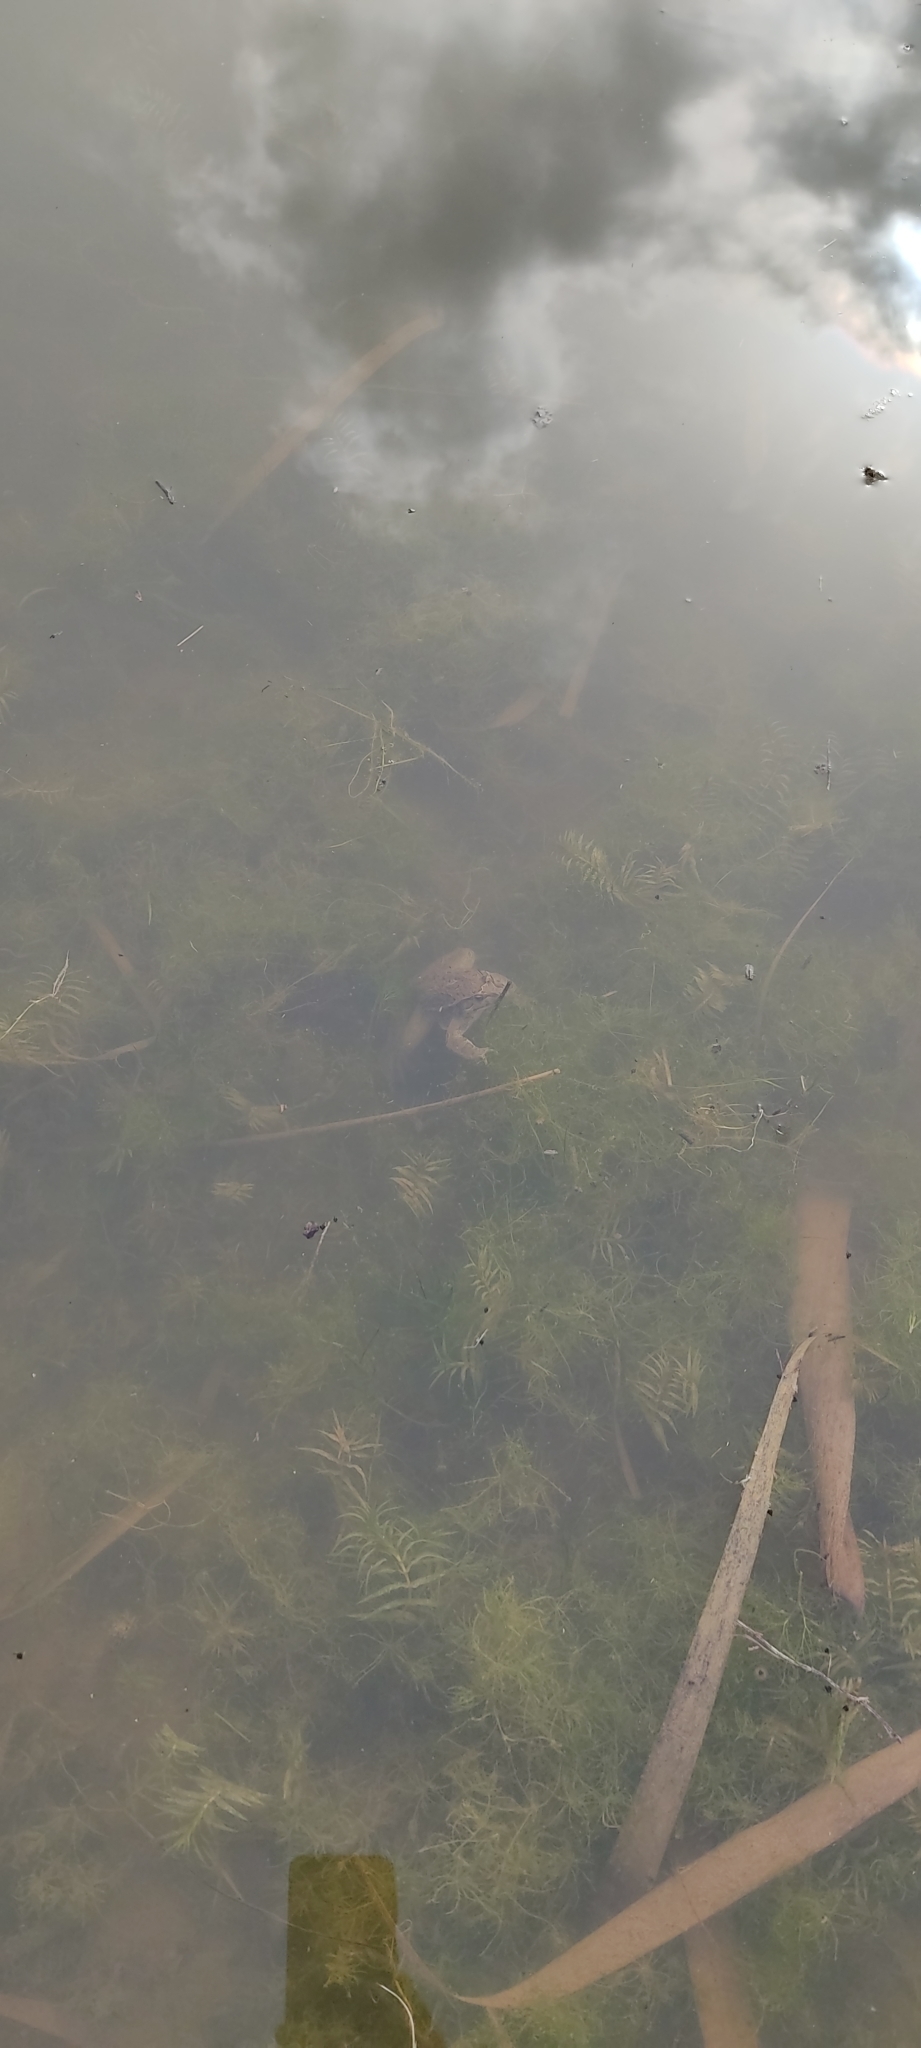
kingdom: Animalia
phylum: Chordata
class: Amphibia
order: Anura
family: Alytidae
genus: Discoglossus
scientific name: Discoglossus pictus
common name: Painted frog
